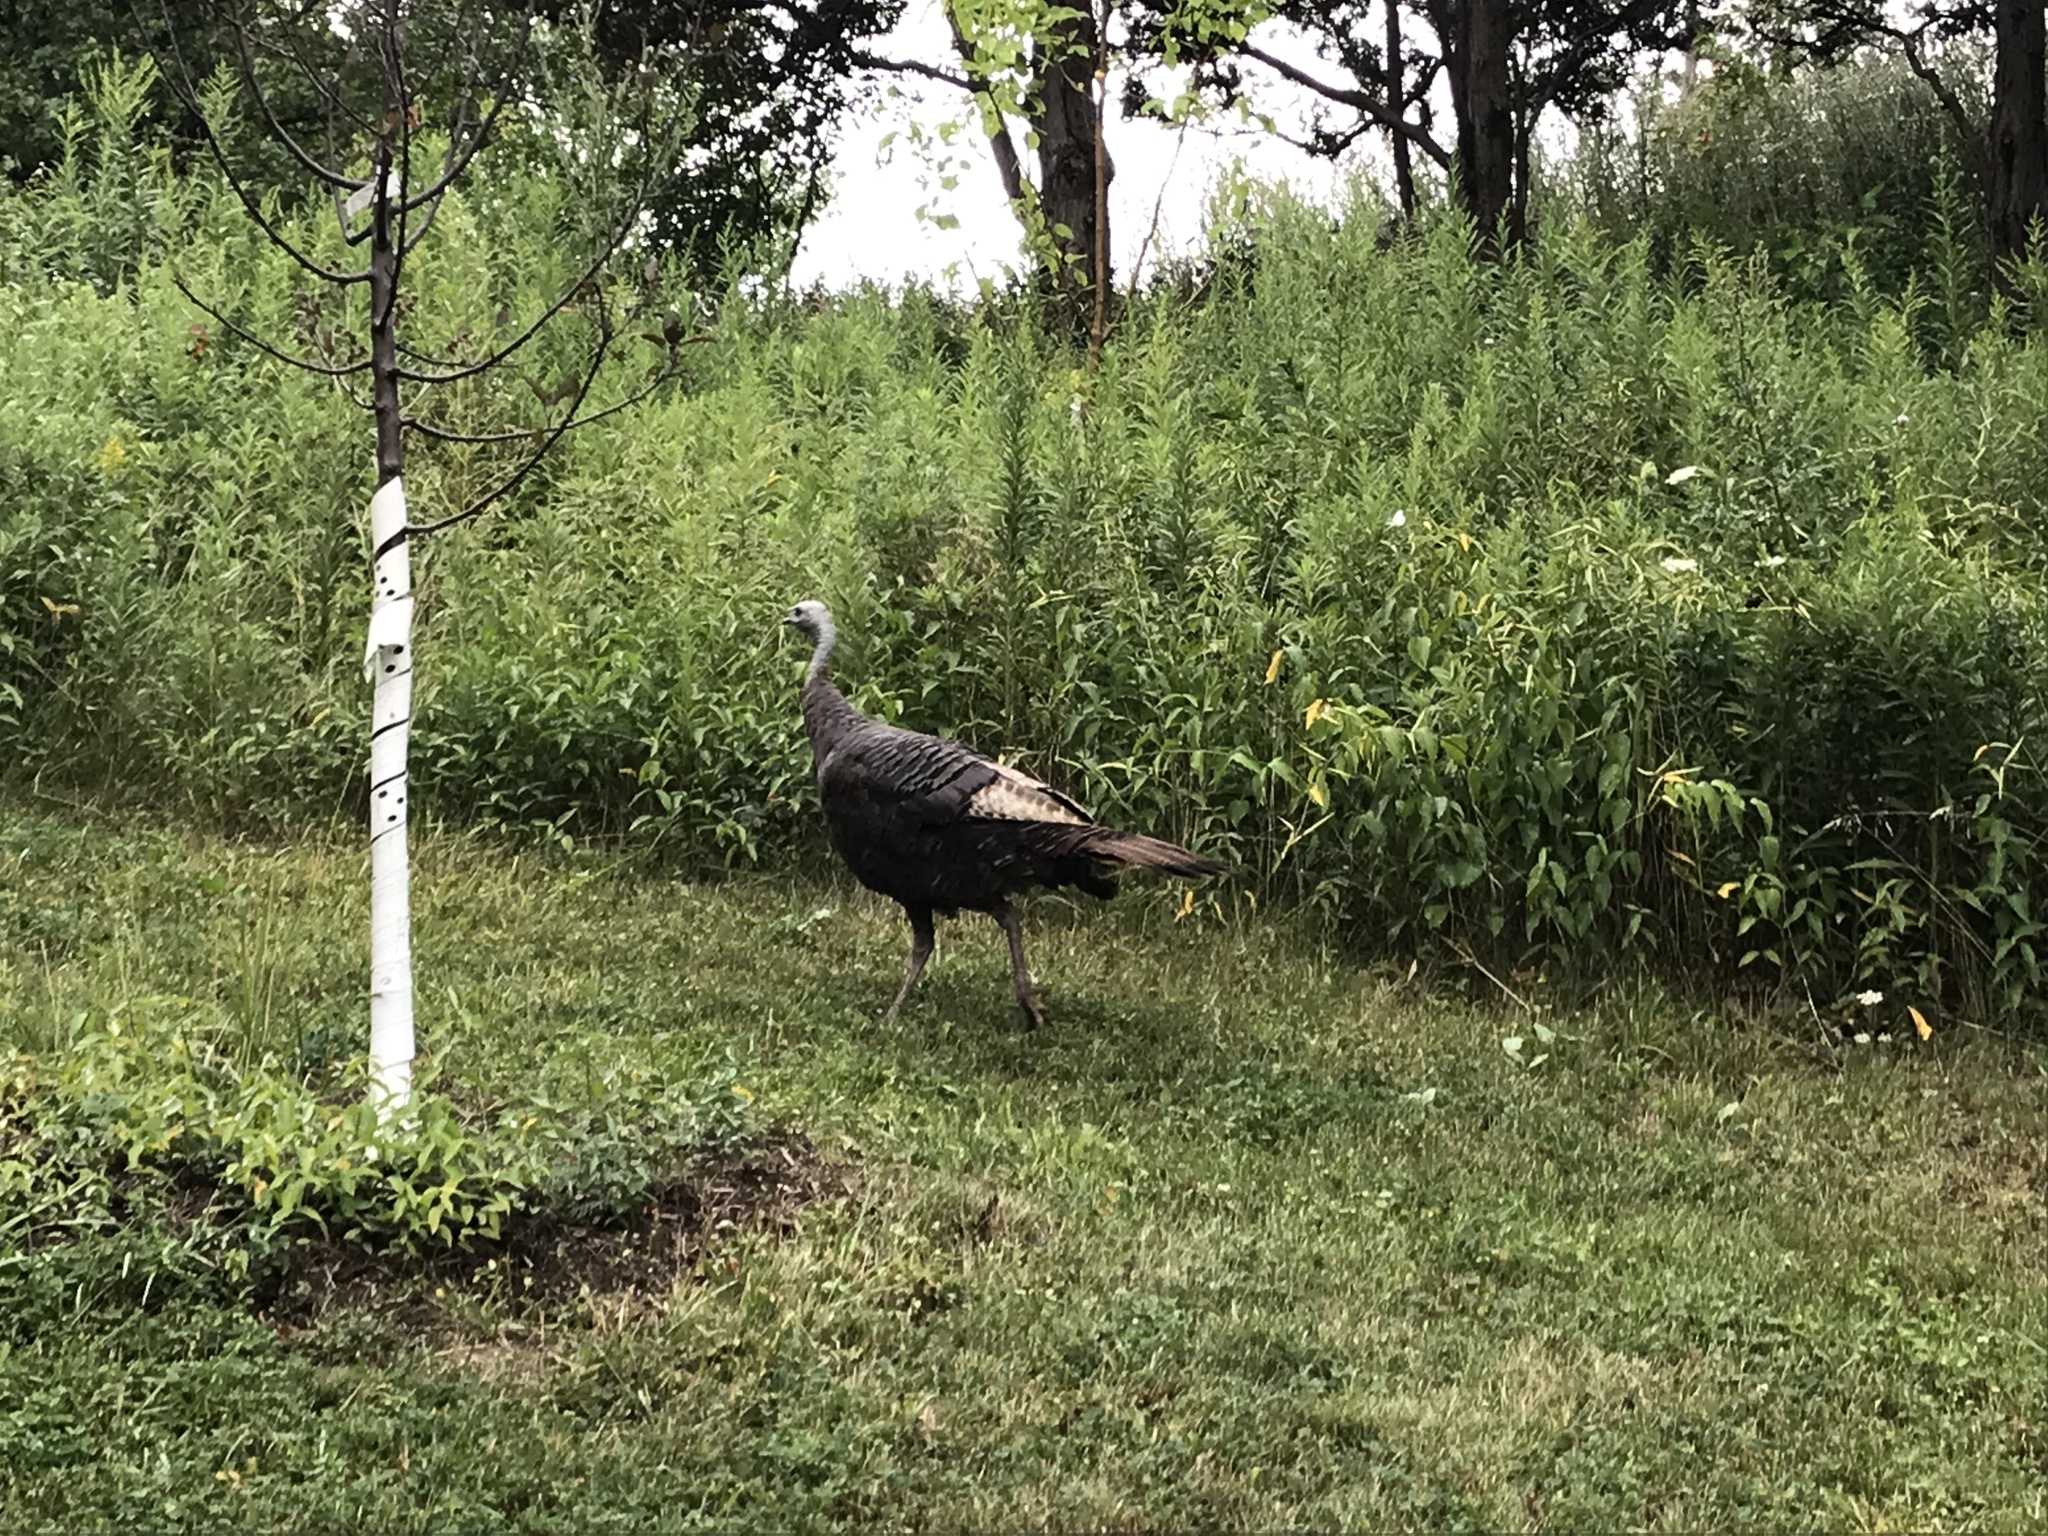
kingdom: Animalia
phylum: Chordata
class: Aves
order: Galliformes
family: Phasianidae
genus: Meleagris
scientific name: Meleagris gallopavo
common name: Wild turkey
